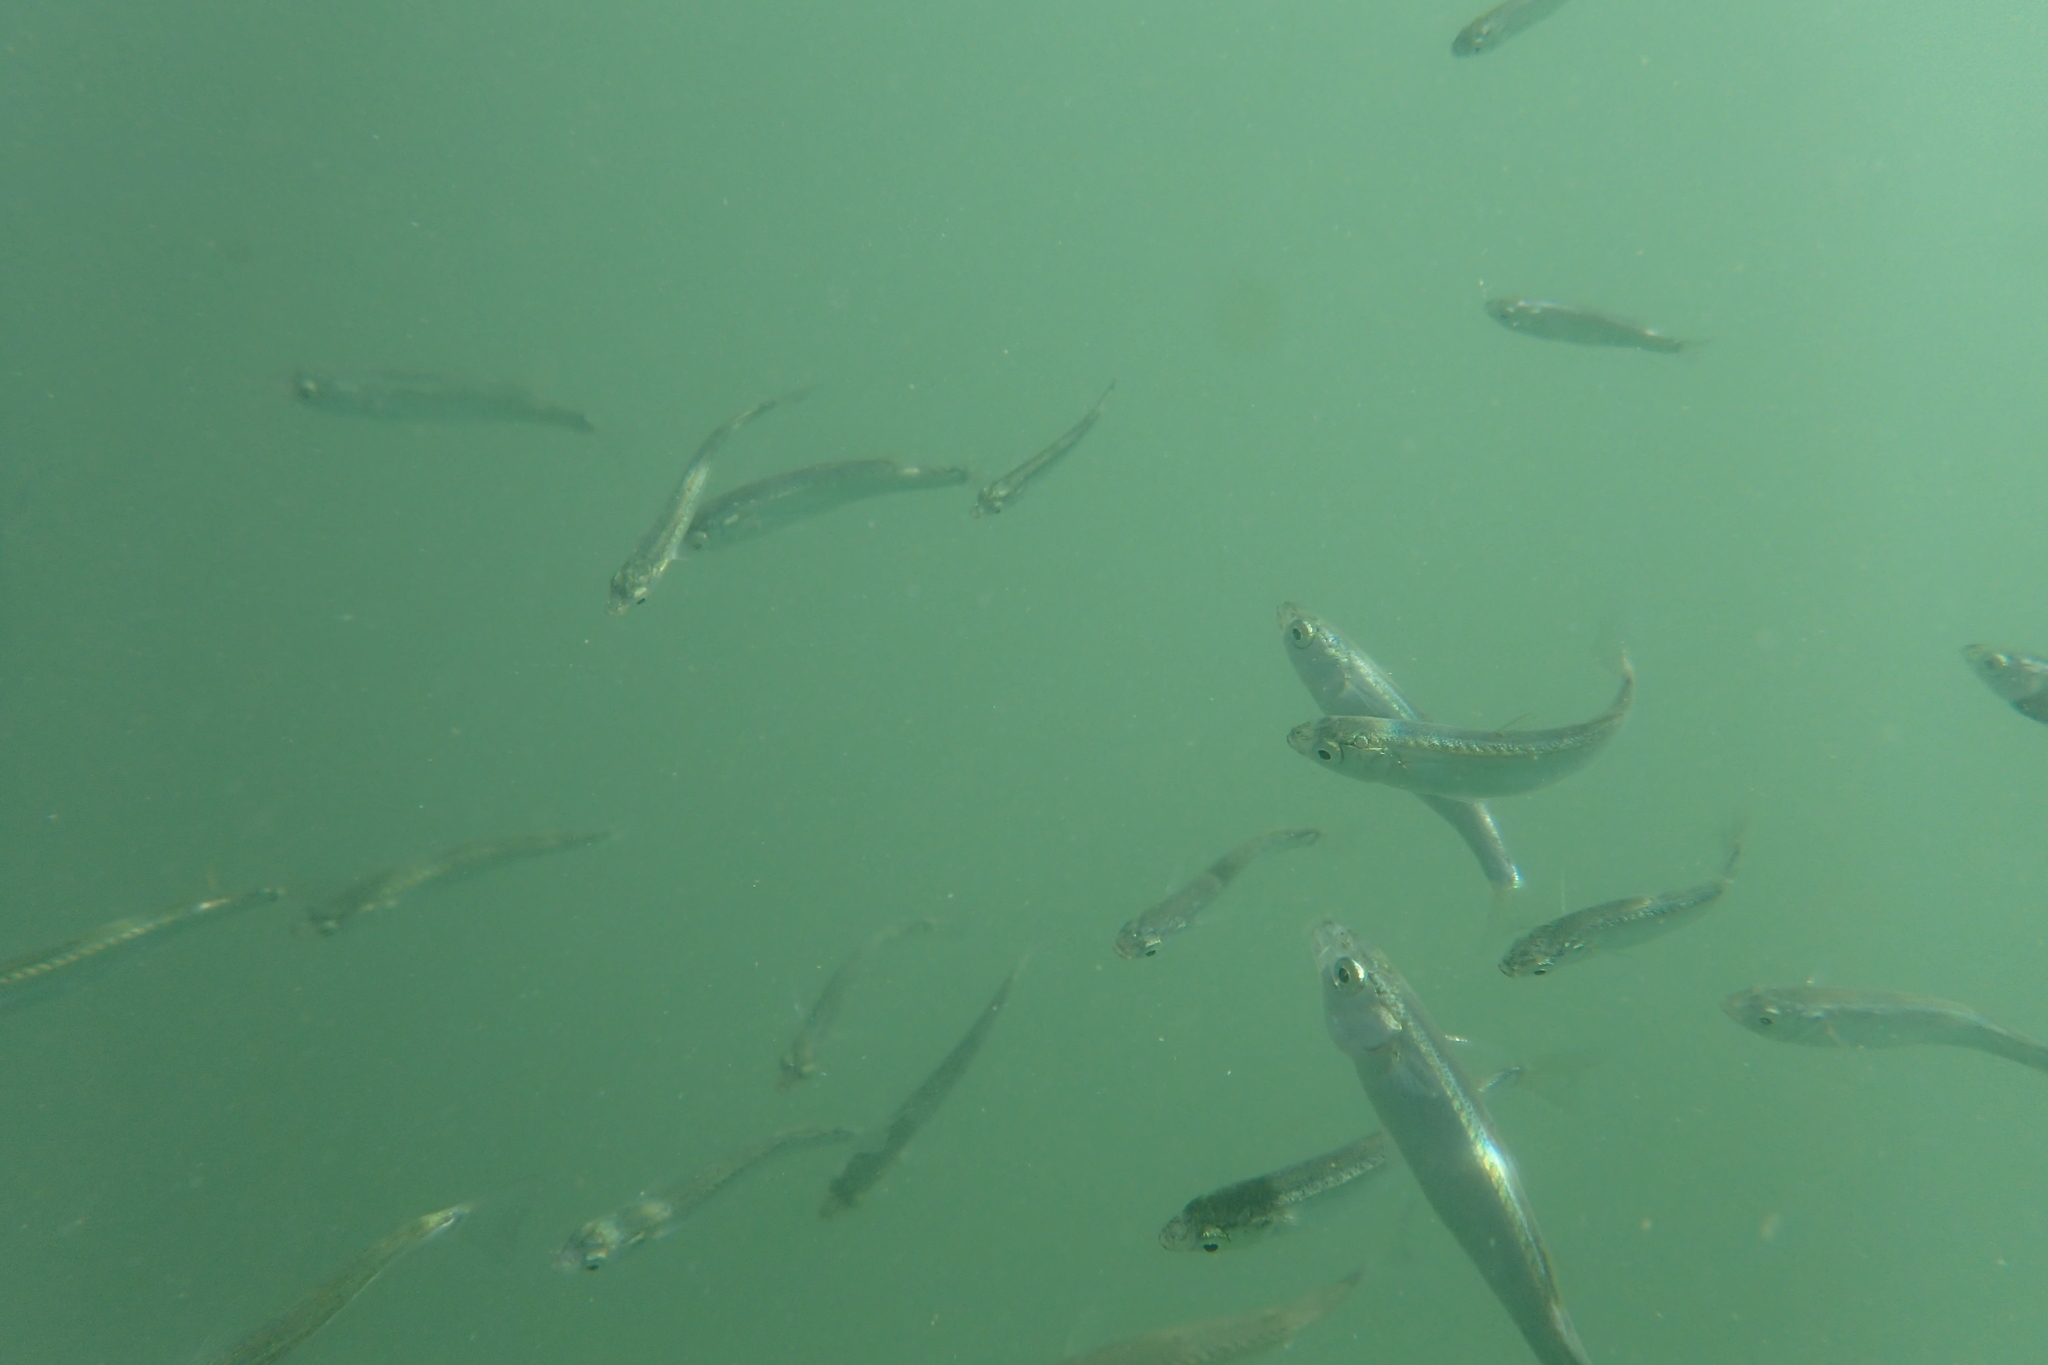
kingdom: Animalia
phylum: Chordata
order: Mugiliformes
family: Mugilidae
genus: Aldrichetta
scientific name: Aldrichetta forsteri
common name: Yellow-eye mullet
